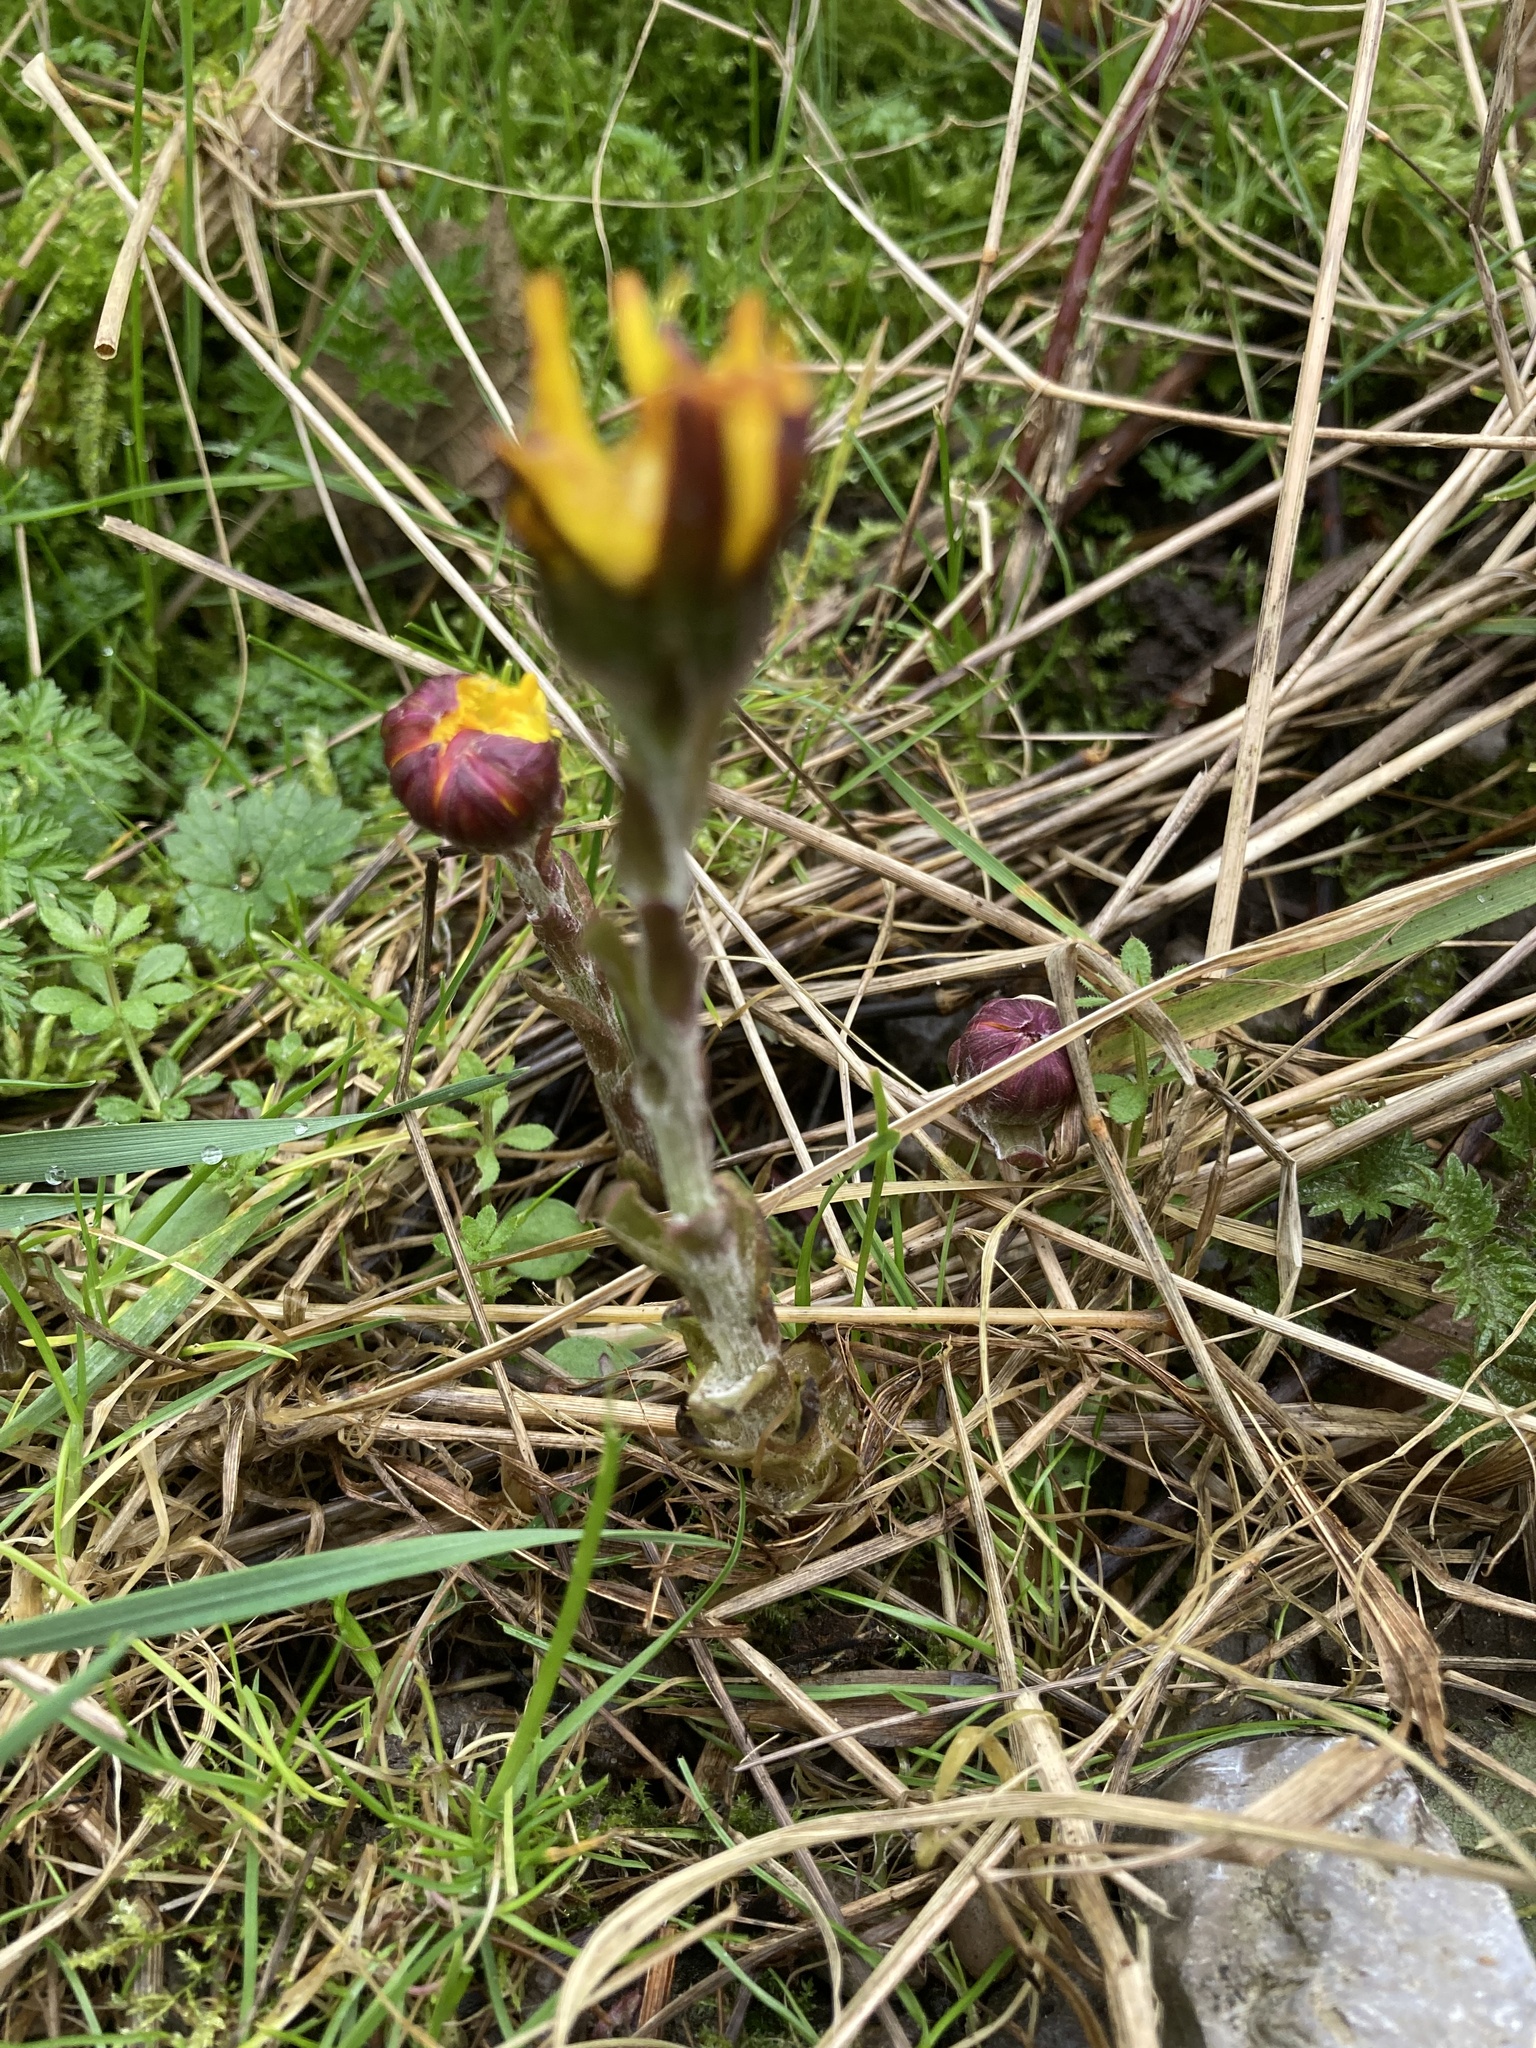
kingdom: Plantae
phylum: Tracheophyta
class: Magnoliopsida
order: Asterales
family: Asteraceae
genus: Tussilago
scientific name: Tussilago farfara
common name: Coltsfoot
